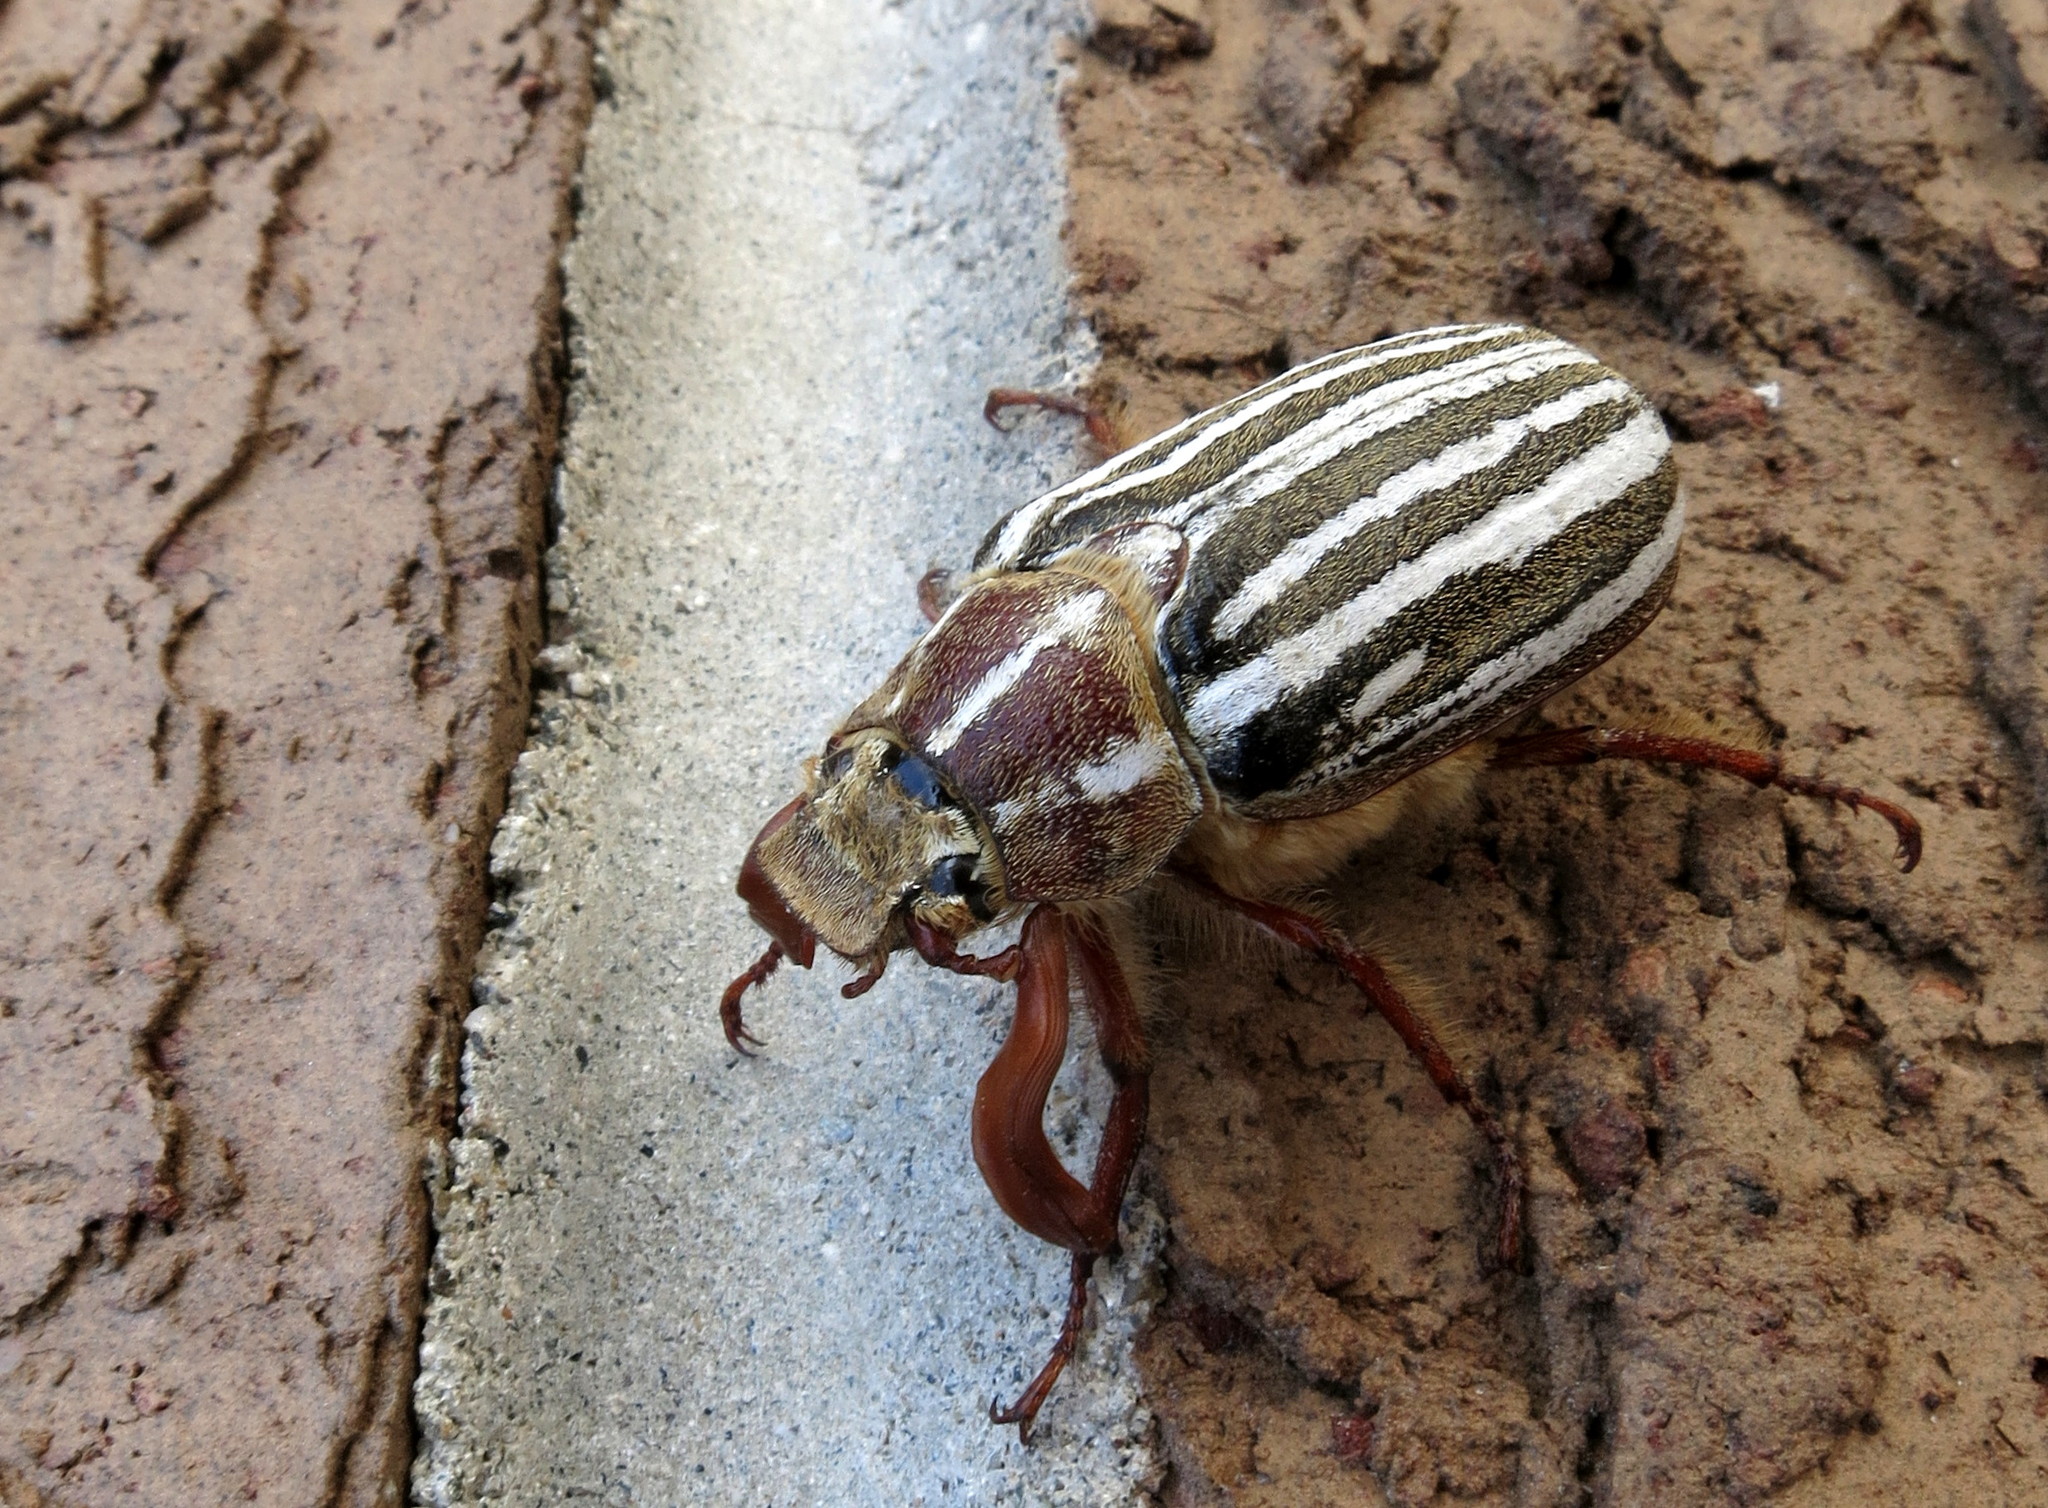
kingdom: Animalia
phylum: Arthropoda
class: Insecta
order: Coleoptera
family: Scarabaeidae
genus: Polyphylla
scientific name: Polyphylla decemlineata
